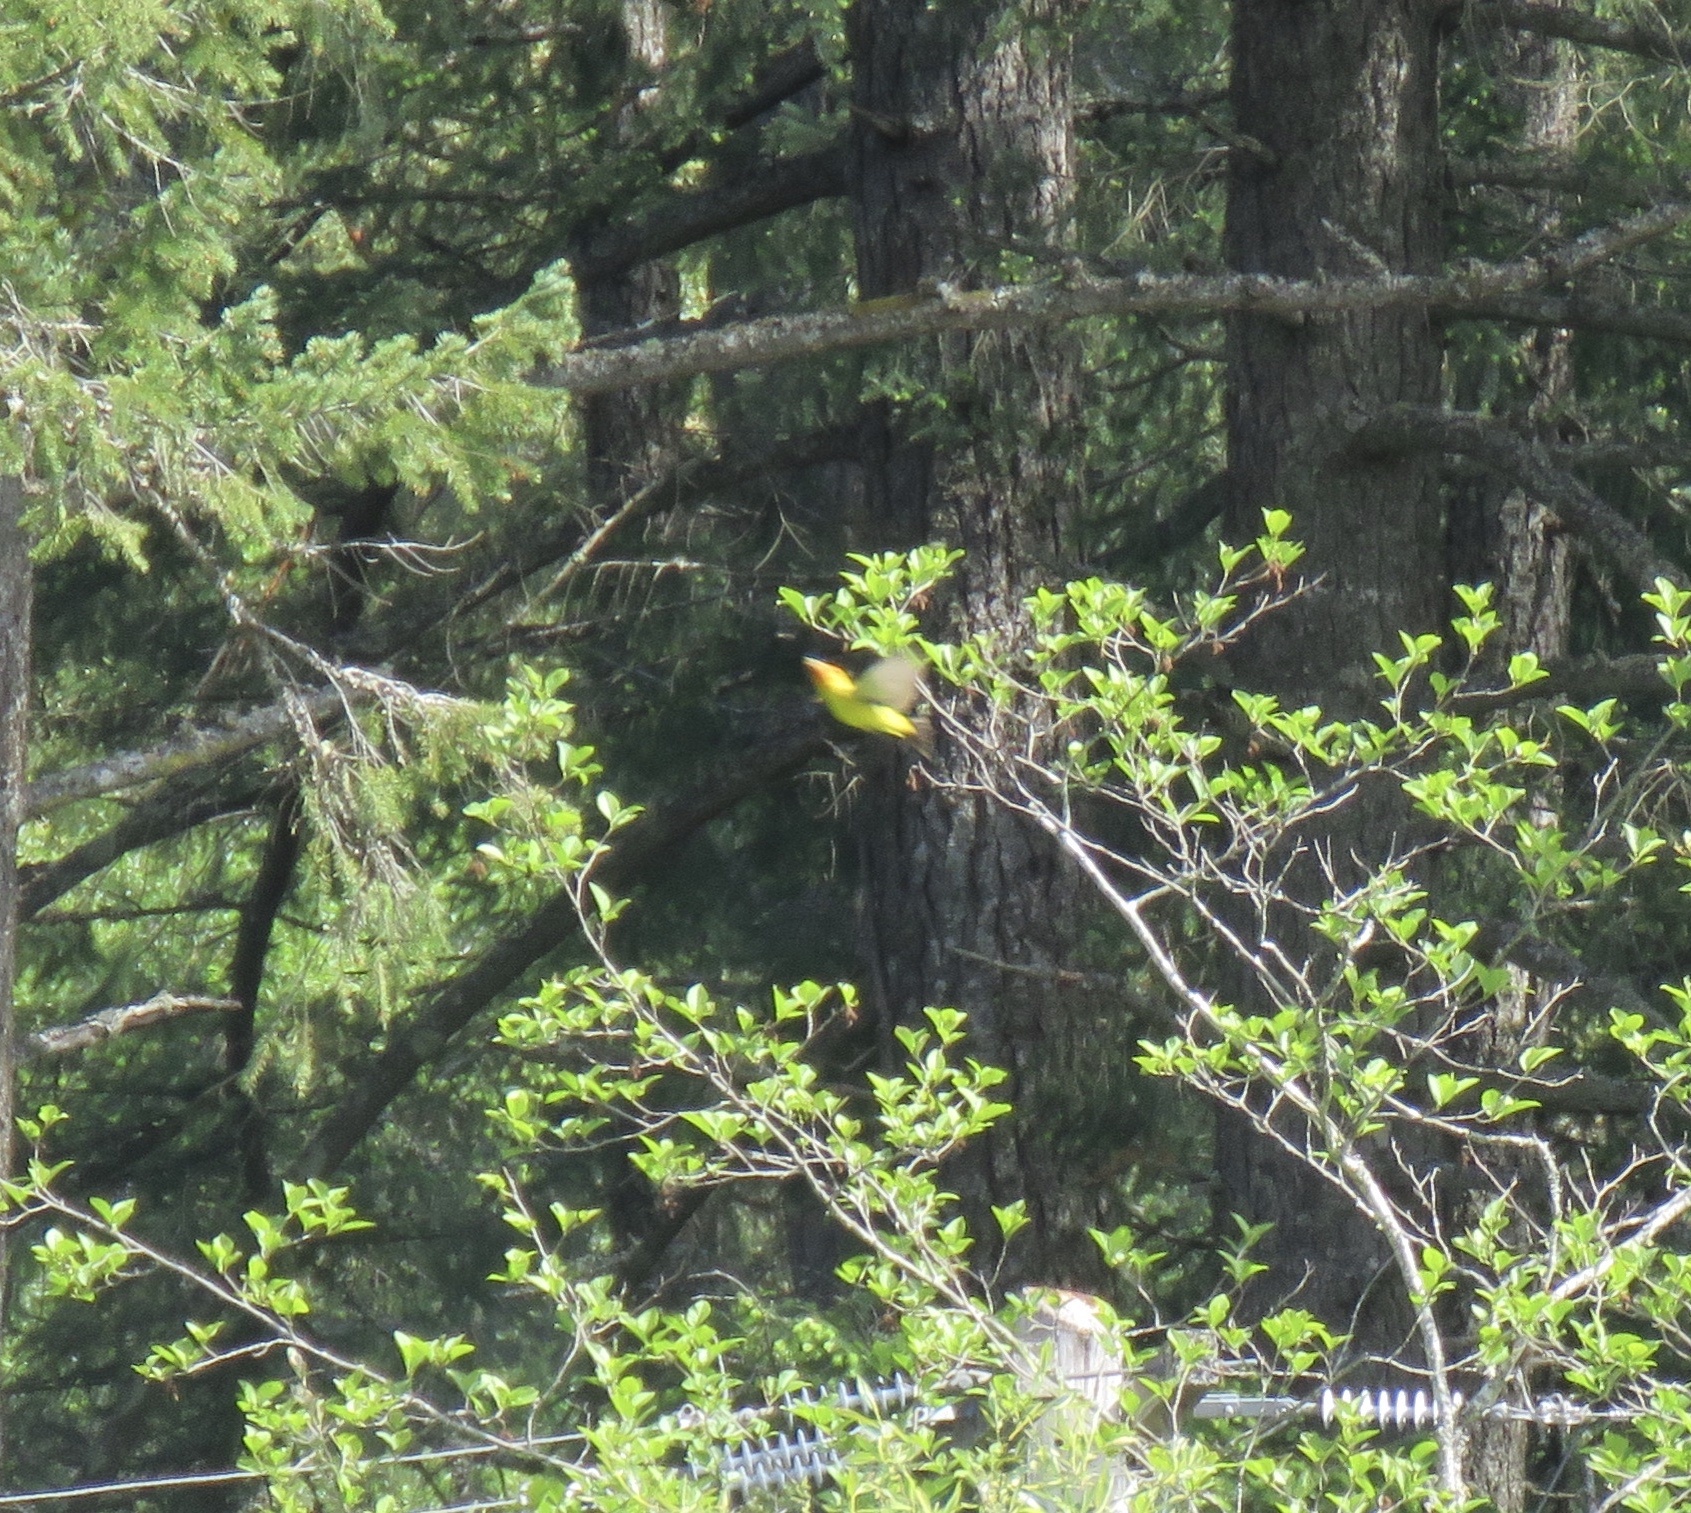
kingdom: Animalia
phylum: Chordata
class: Aves
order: Passeriformes
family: Cardinalidae
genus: Piranga
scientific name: Piranga ludoviciana
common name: Western tanager
